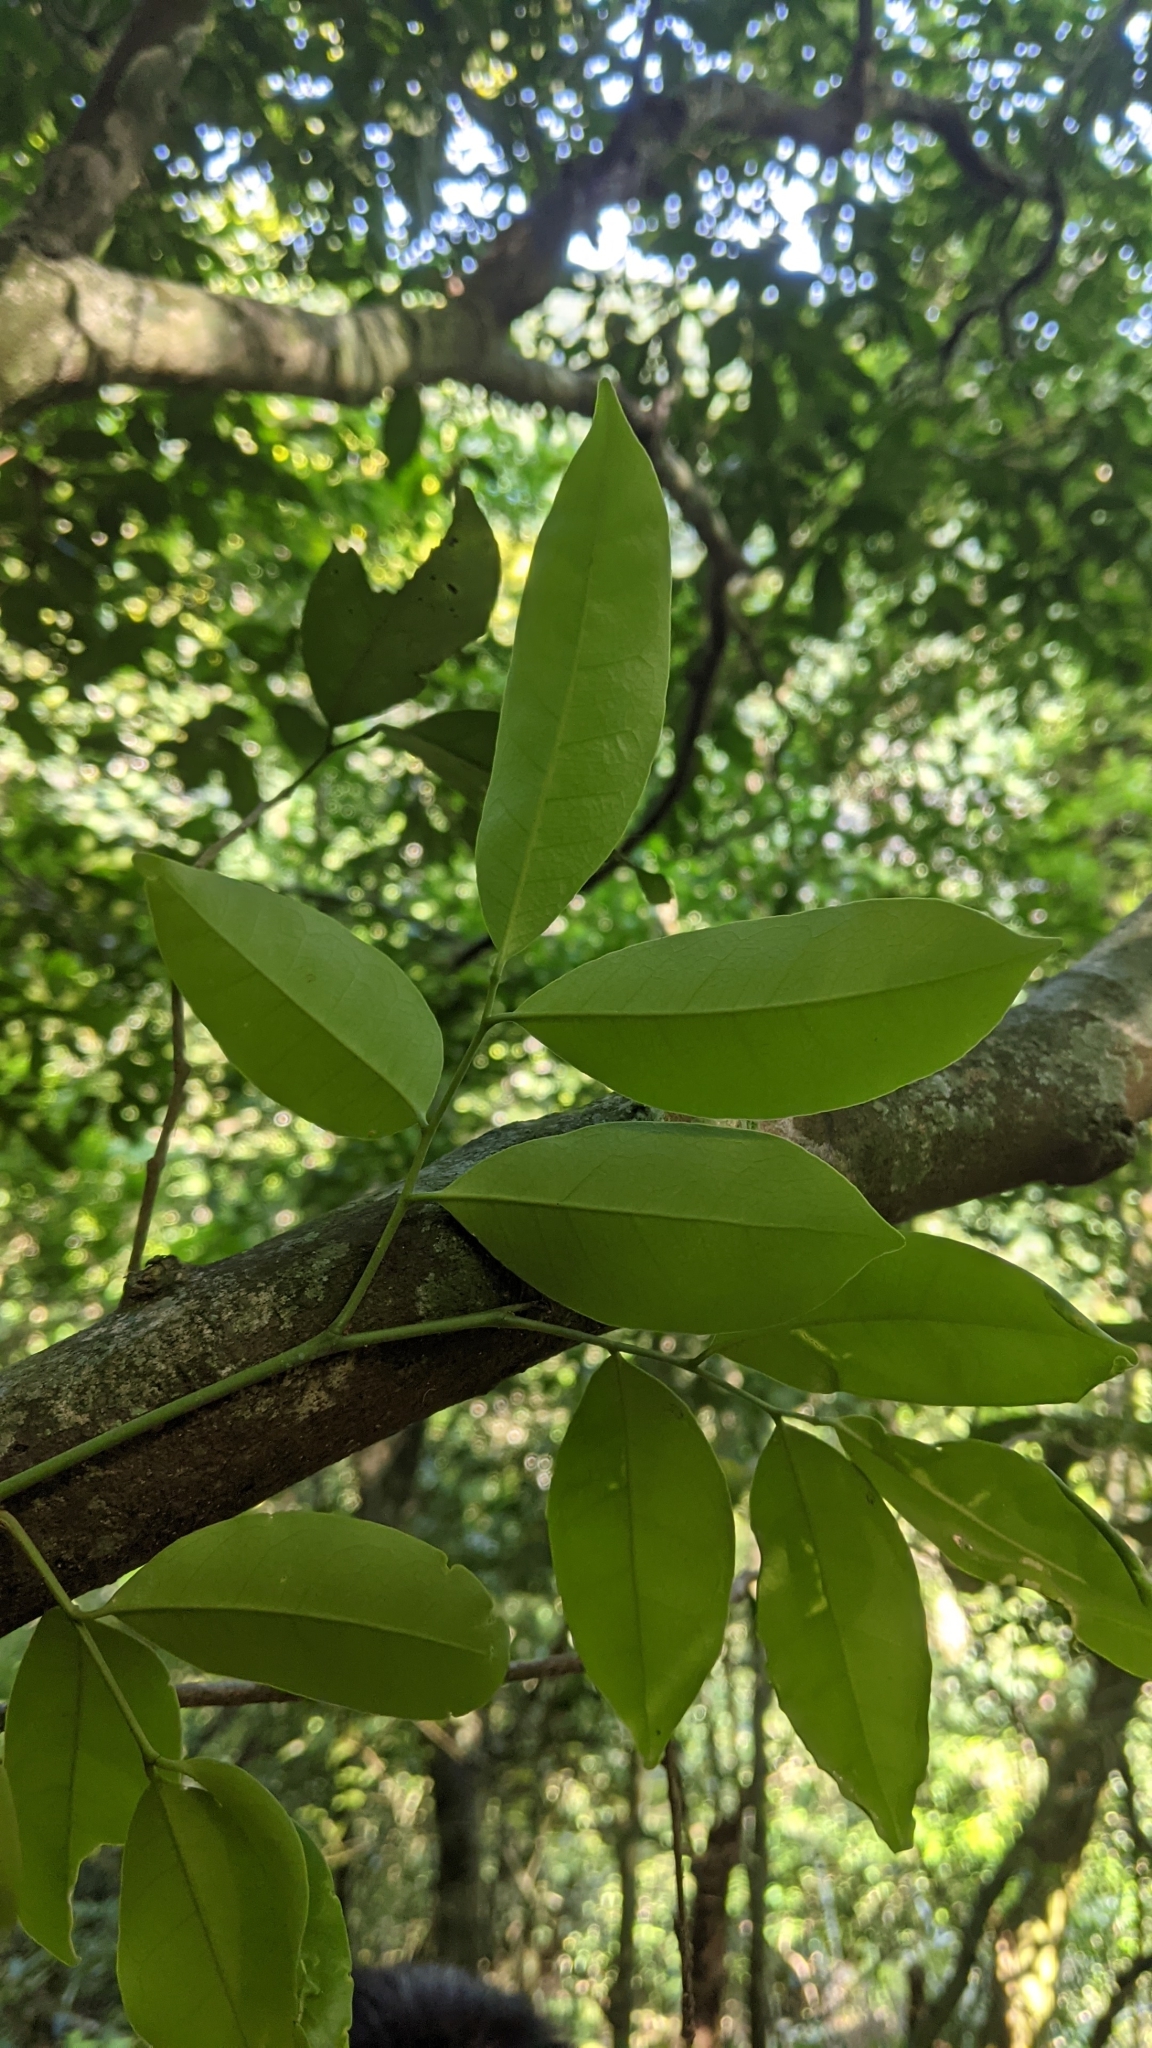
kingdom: Plantae
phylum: Tracheophyta
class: Magnoliopsida
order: Sapindales
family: Rutaceae
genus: Glycosmis
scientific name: Glycosmis parviflora
